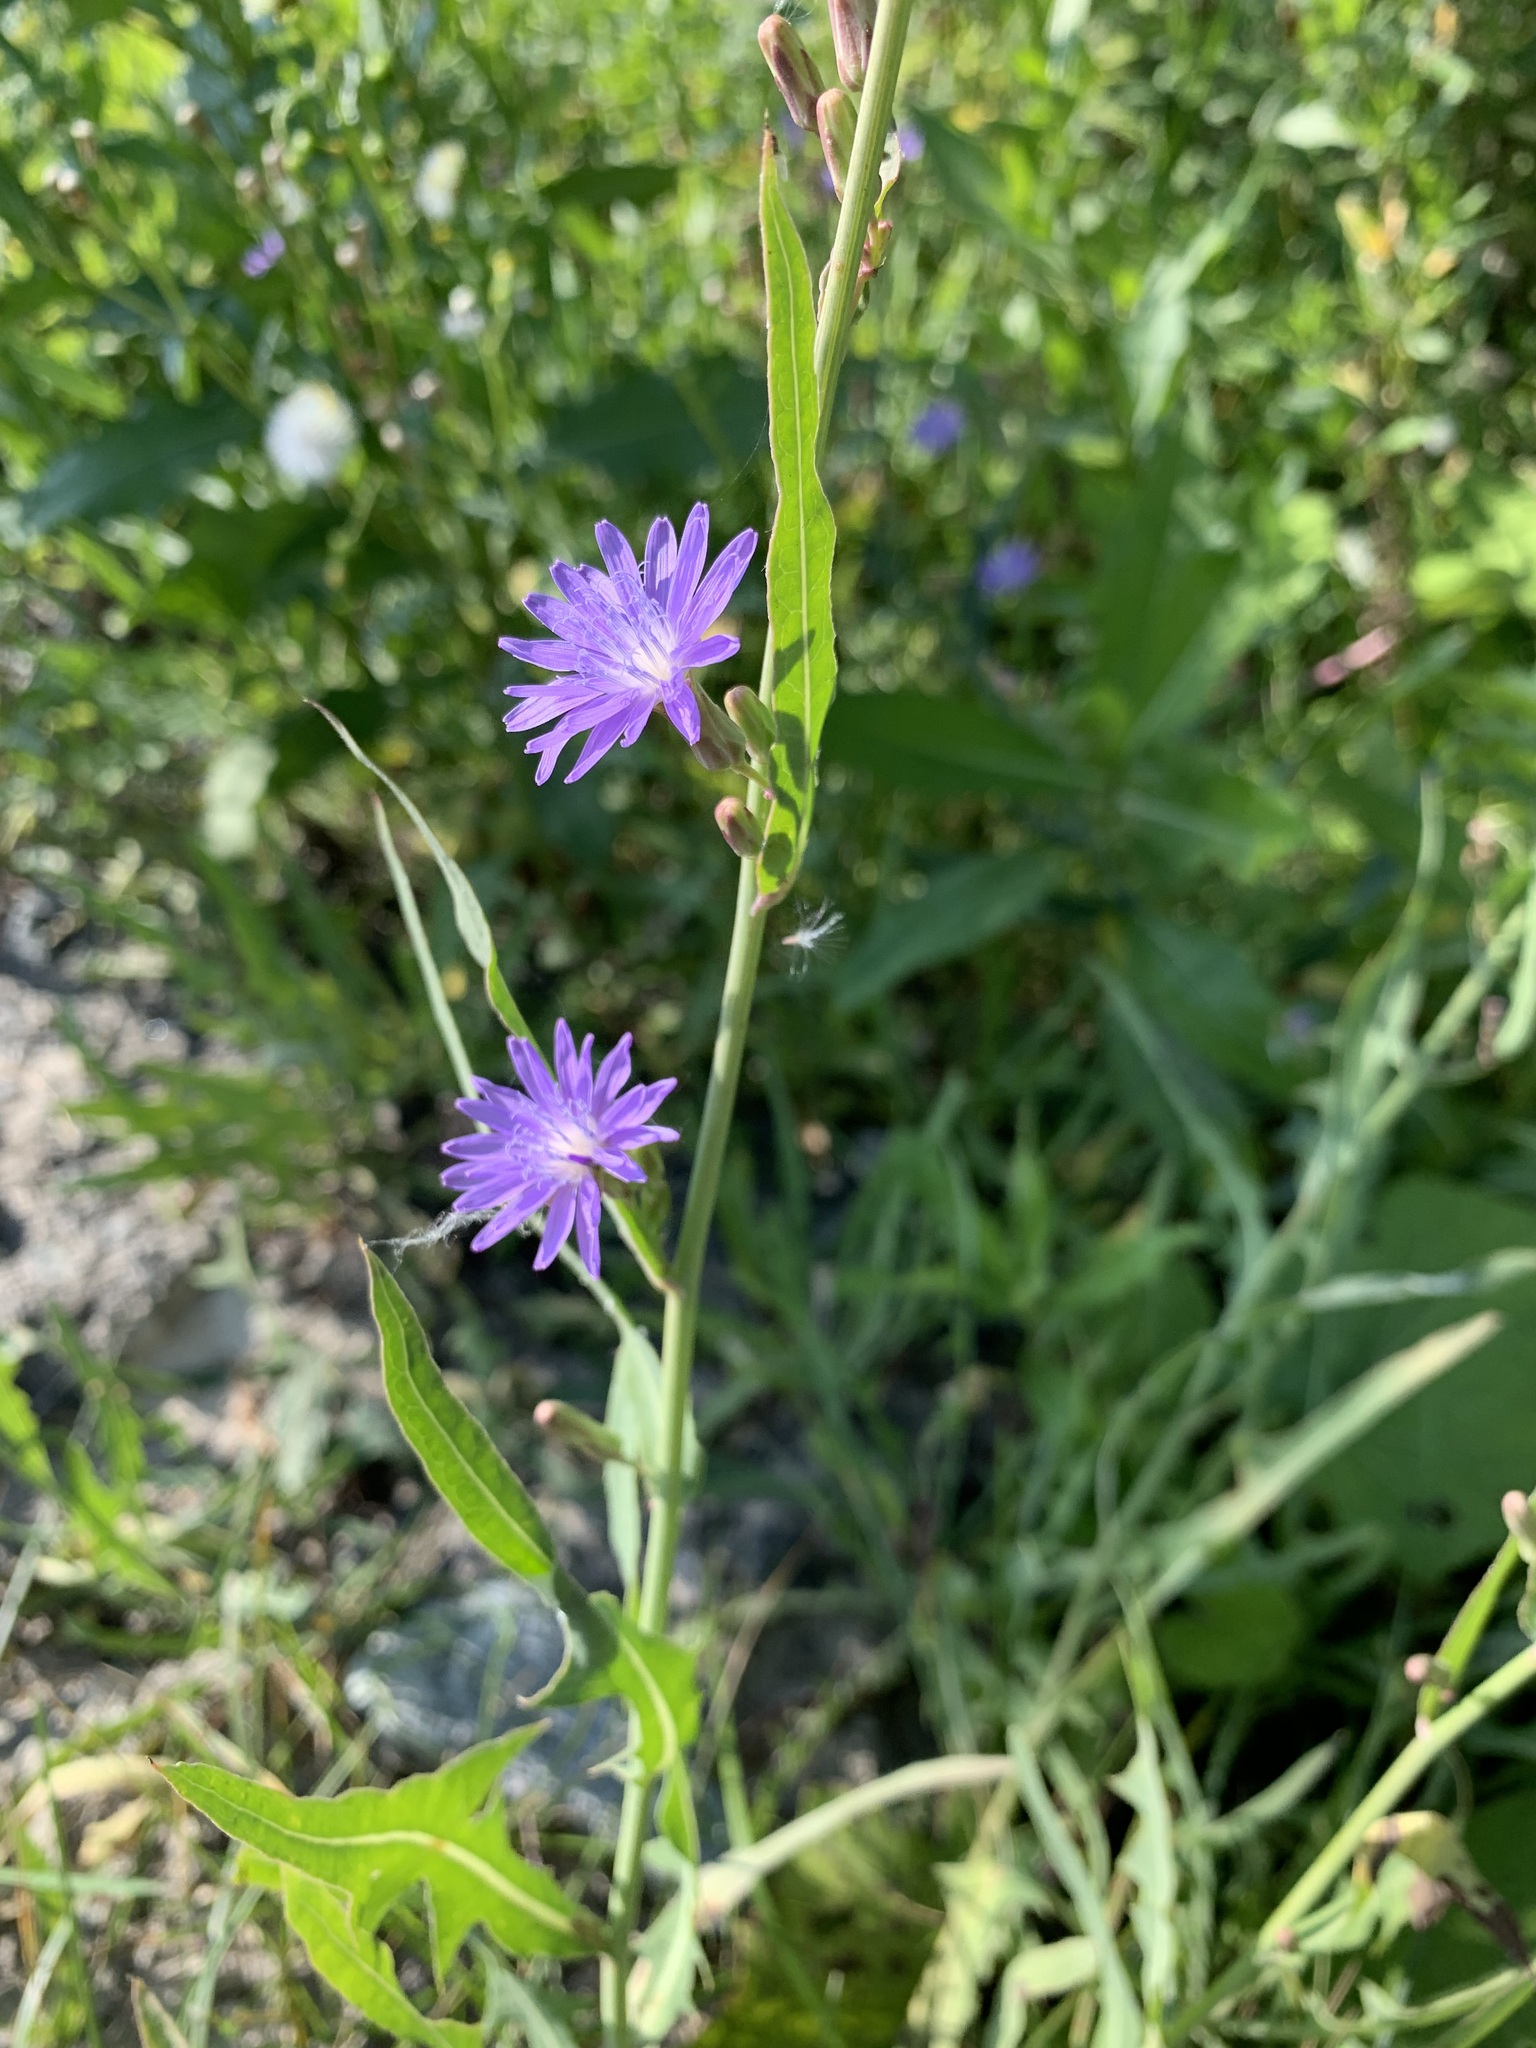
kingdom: Plantae
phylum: Tracheophyta
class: Magnoliopsida
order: Asterales
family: Asteraceae
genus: Lactuca
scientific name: Lactuca tatarica
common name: Blue lettuce
